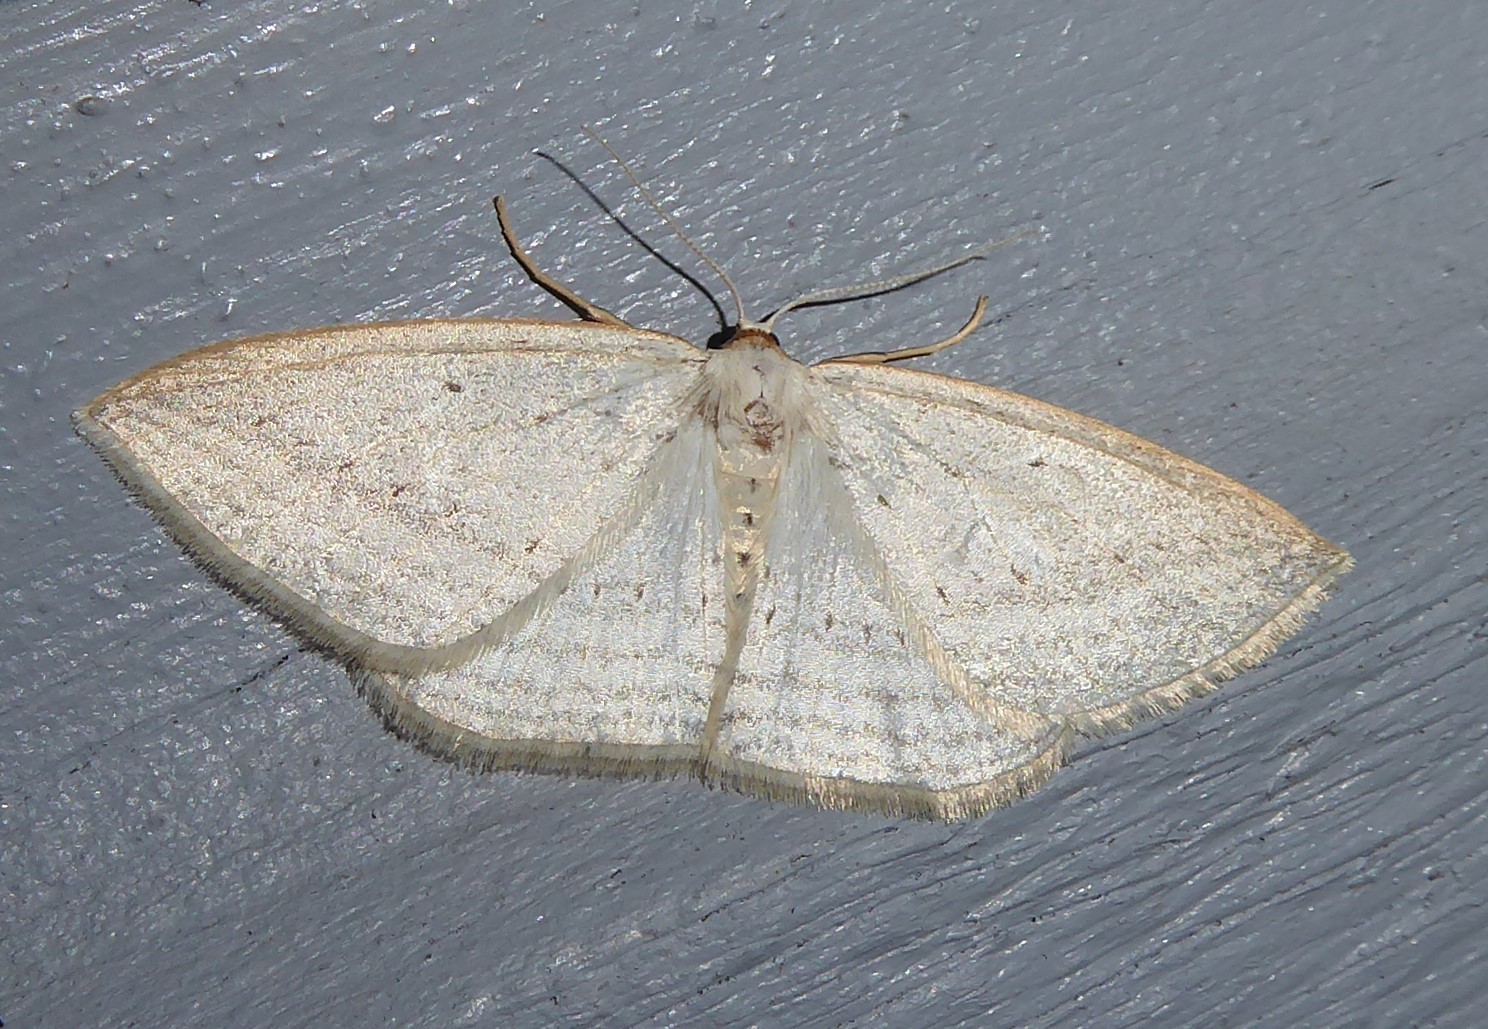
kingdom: Animalia
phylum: Arthropoda
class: Insecta
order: Lepidoptera
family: Geometridae
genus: Orthoclydon
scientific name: Orthoclydon praefectata
